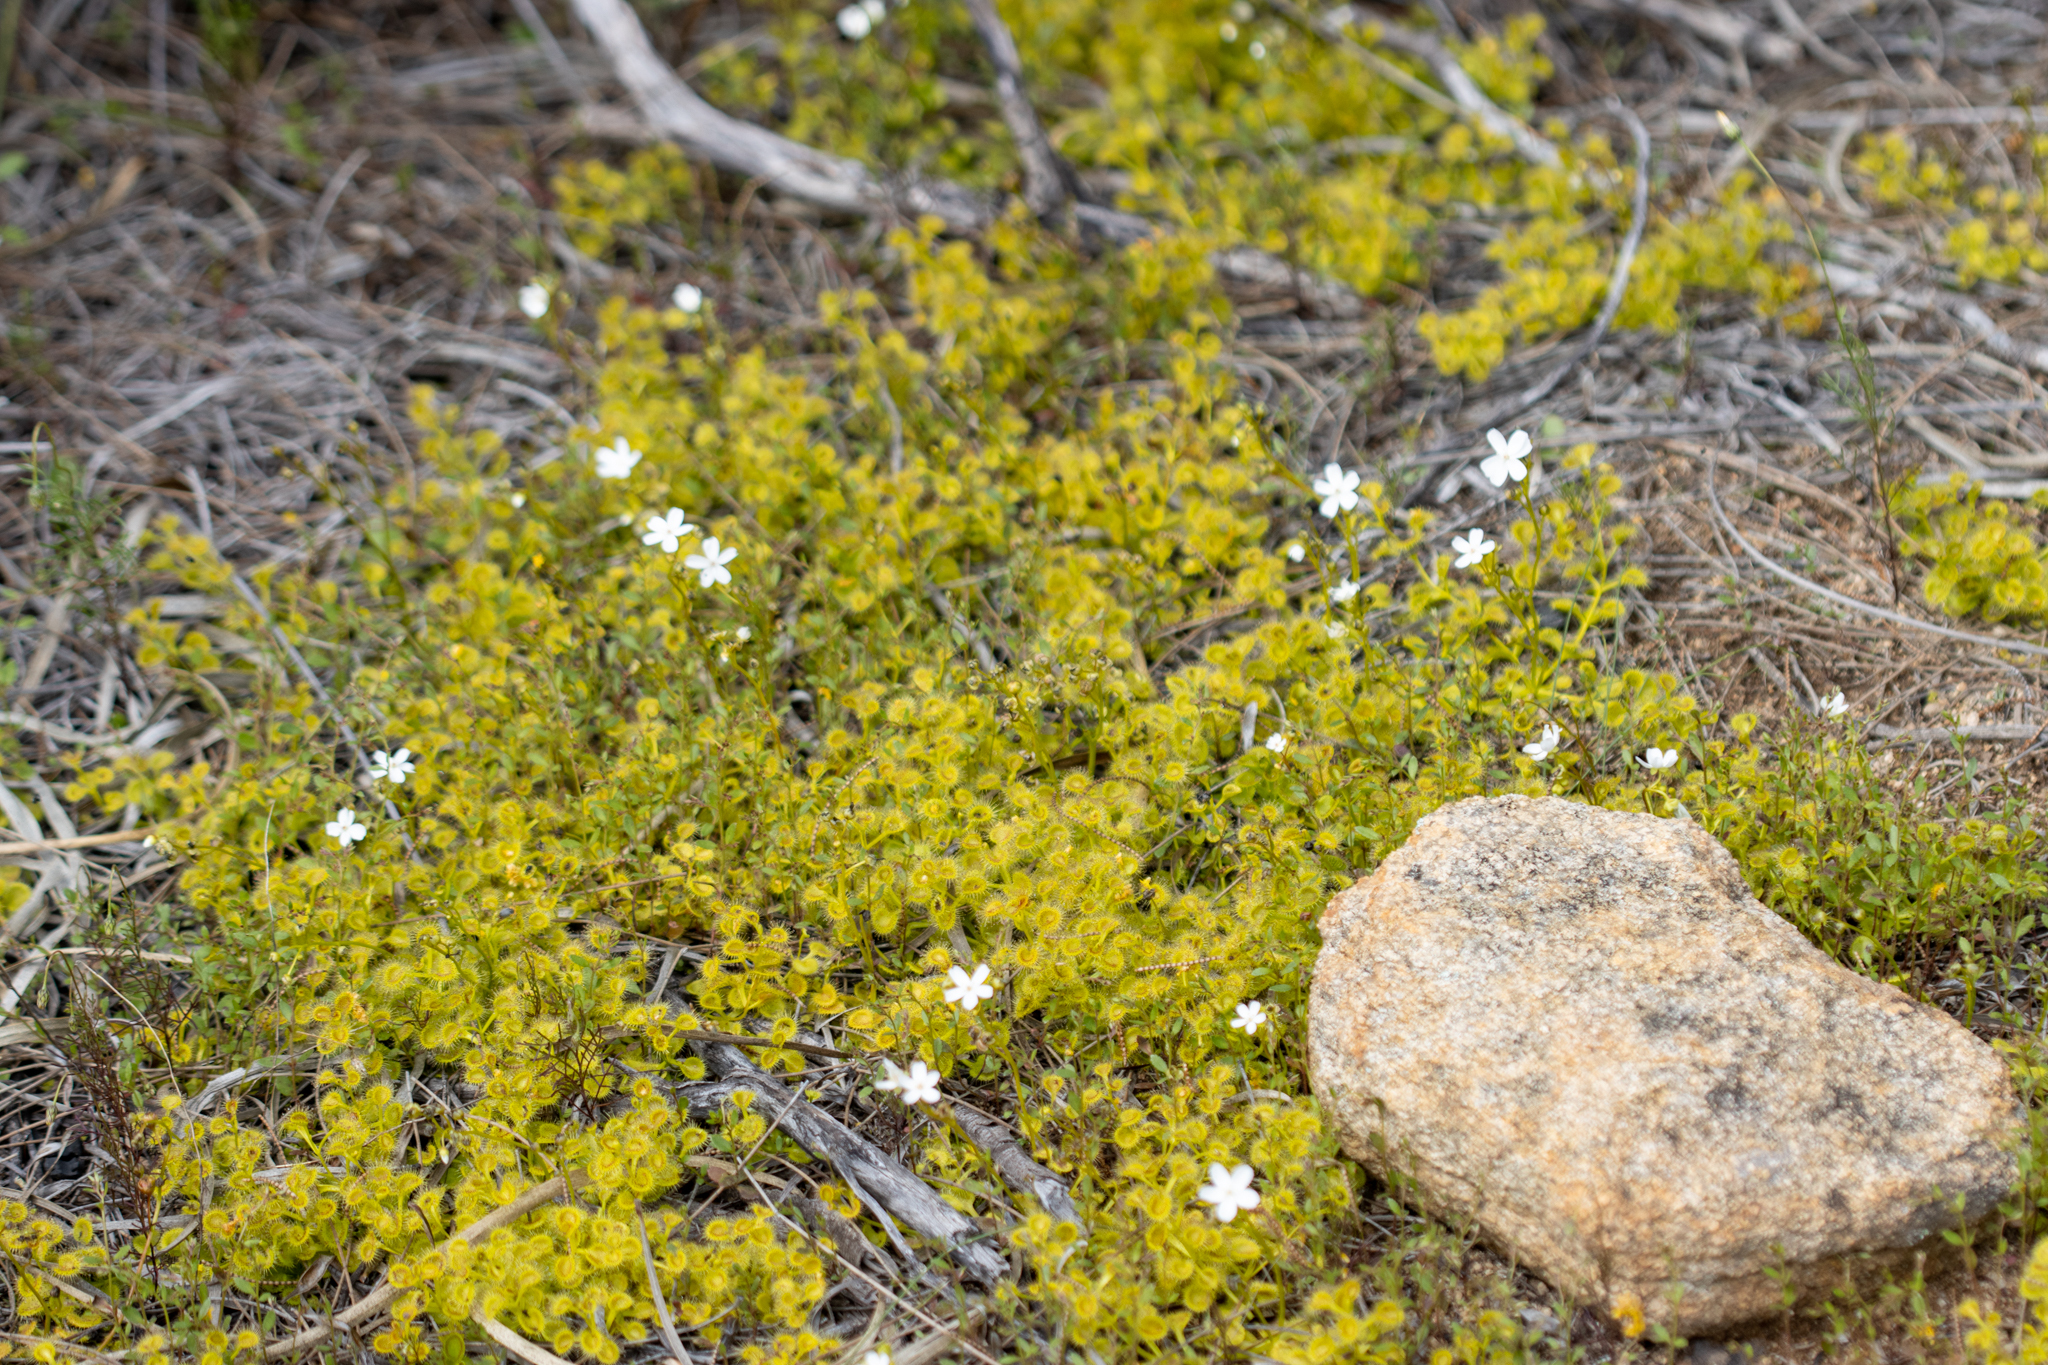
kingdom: Plantae
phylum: Tracheophyta
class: Magnoliopsida
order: Caryophyllales
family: Droseraceae
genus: Drosera
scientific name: Drosera rupicola
